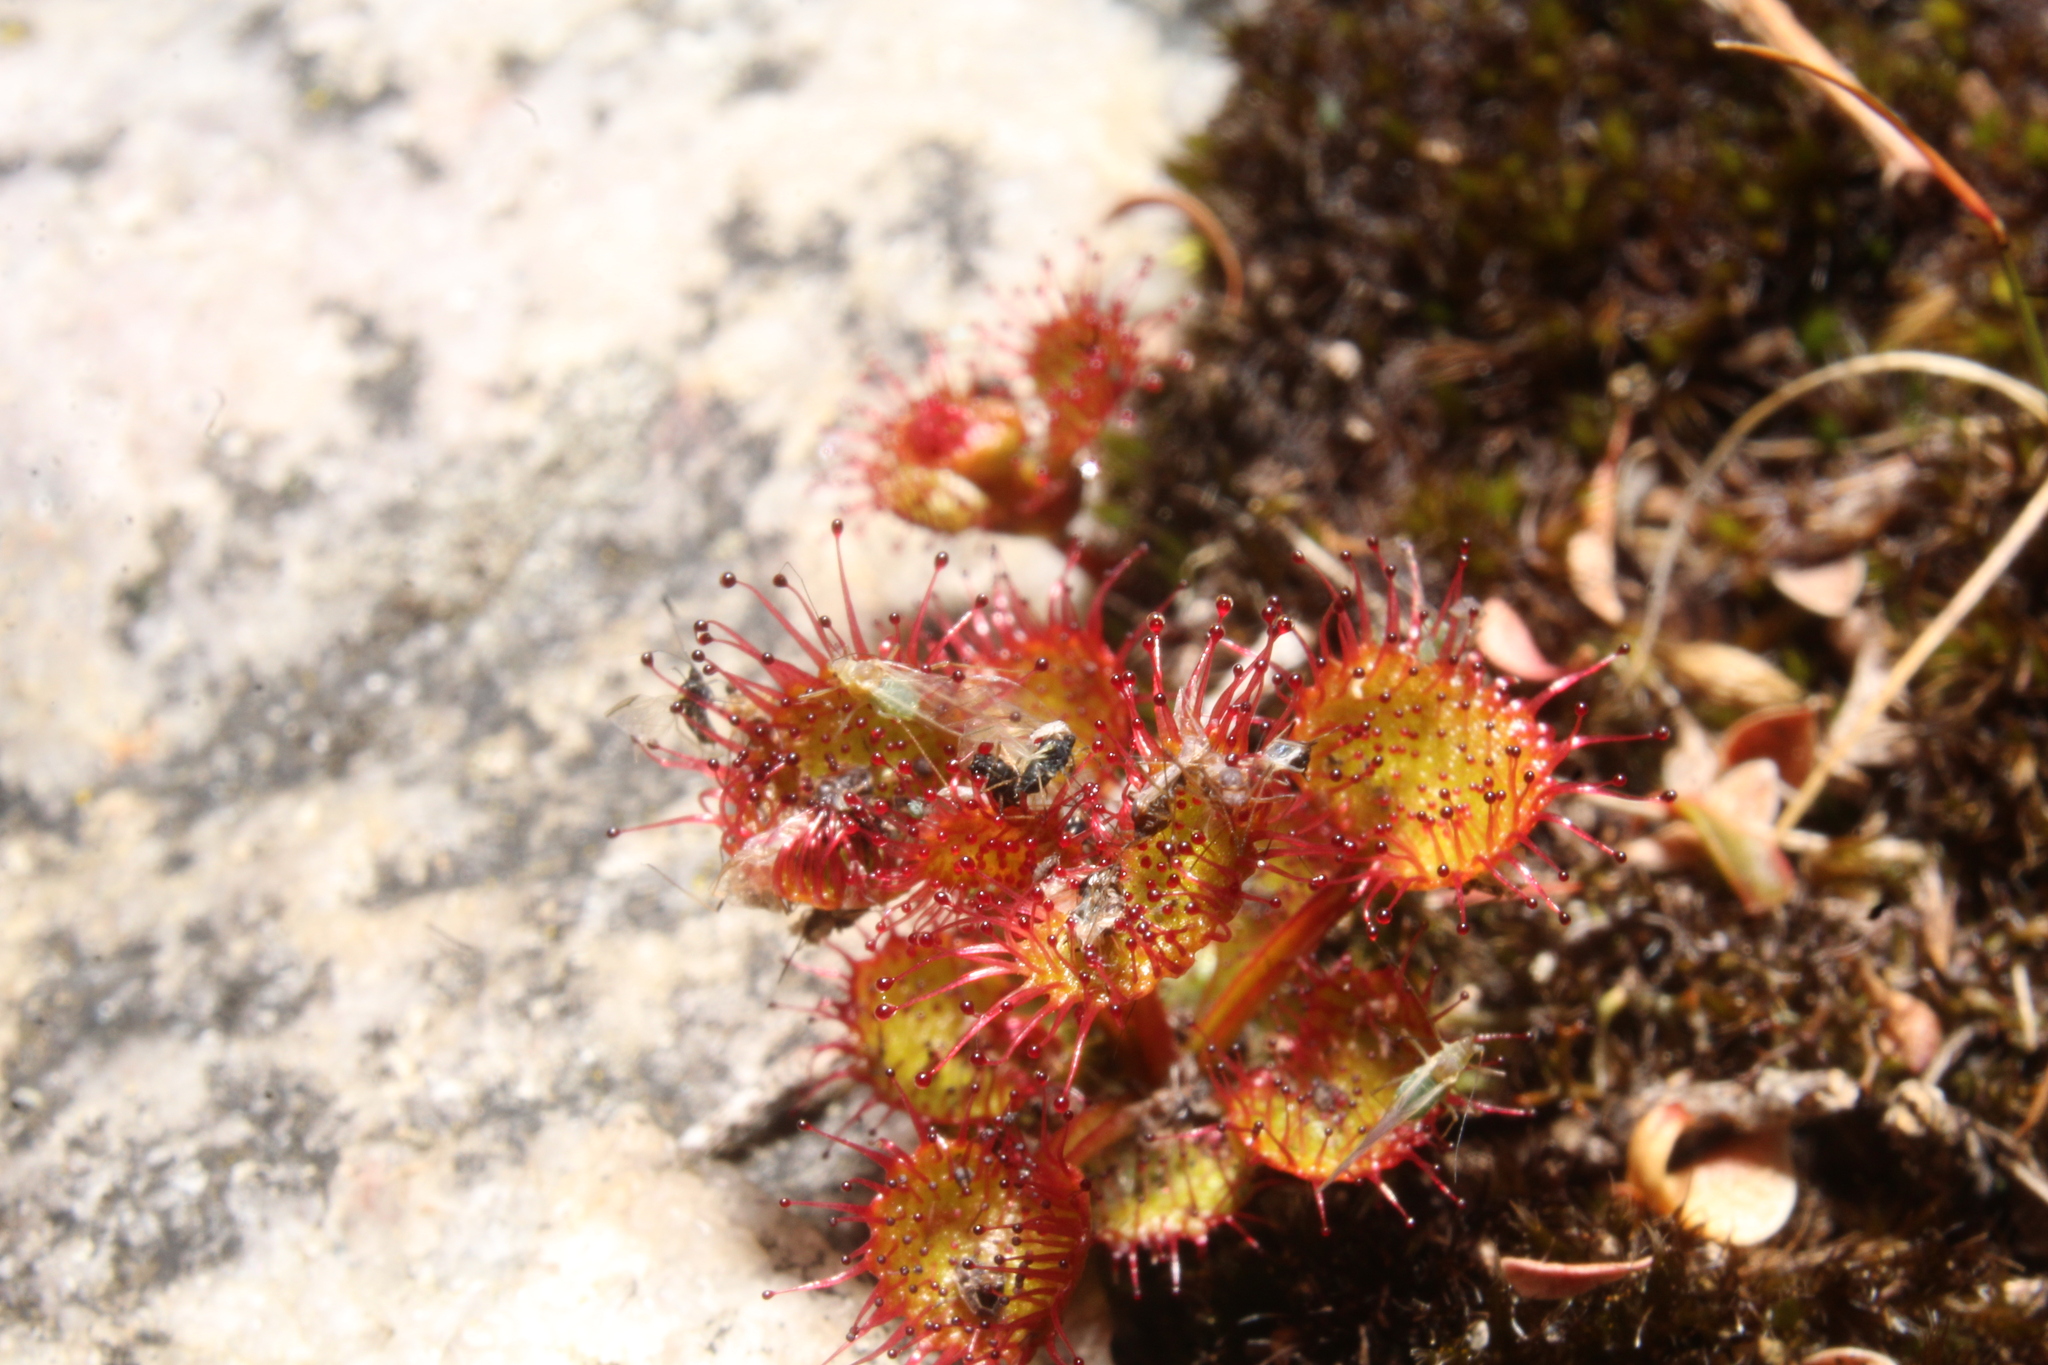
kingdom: Plantae
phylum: Tracheophyta
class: Magnoliopsida
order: Caryophyllales
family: Droseraceae
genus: Drosera
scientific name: Drosera monticola
